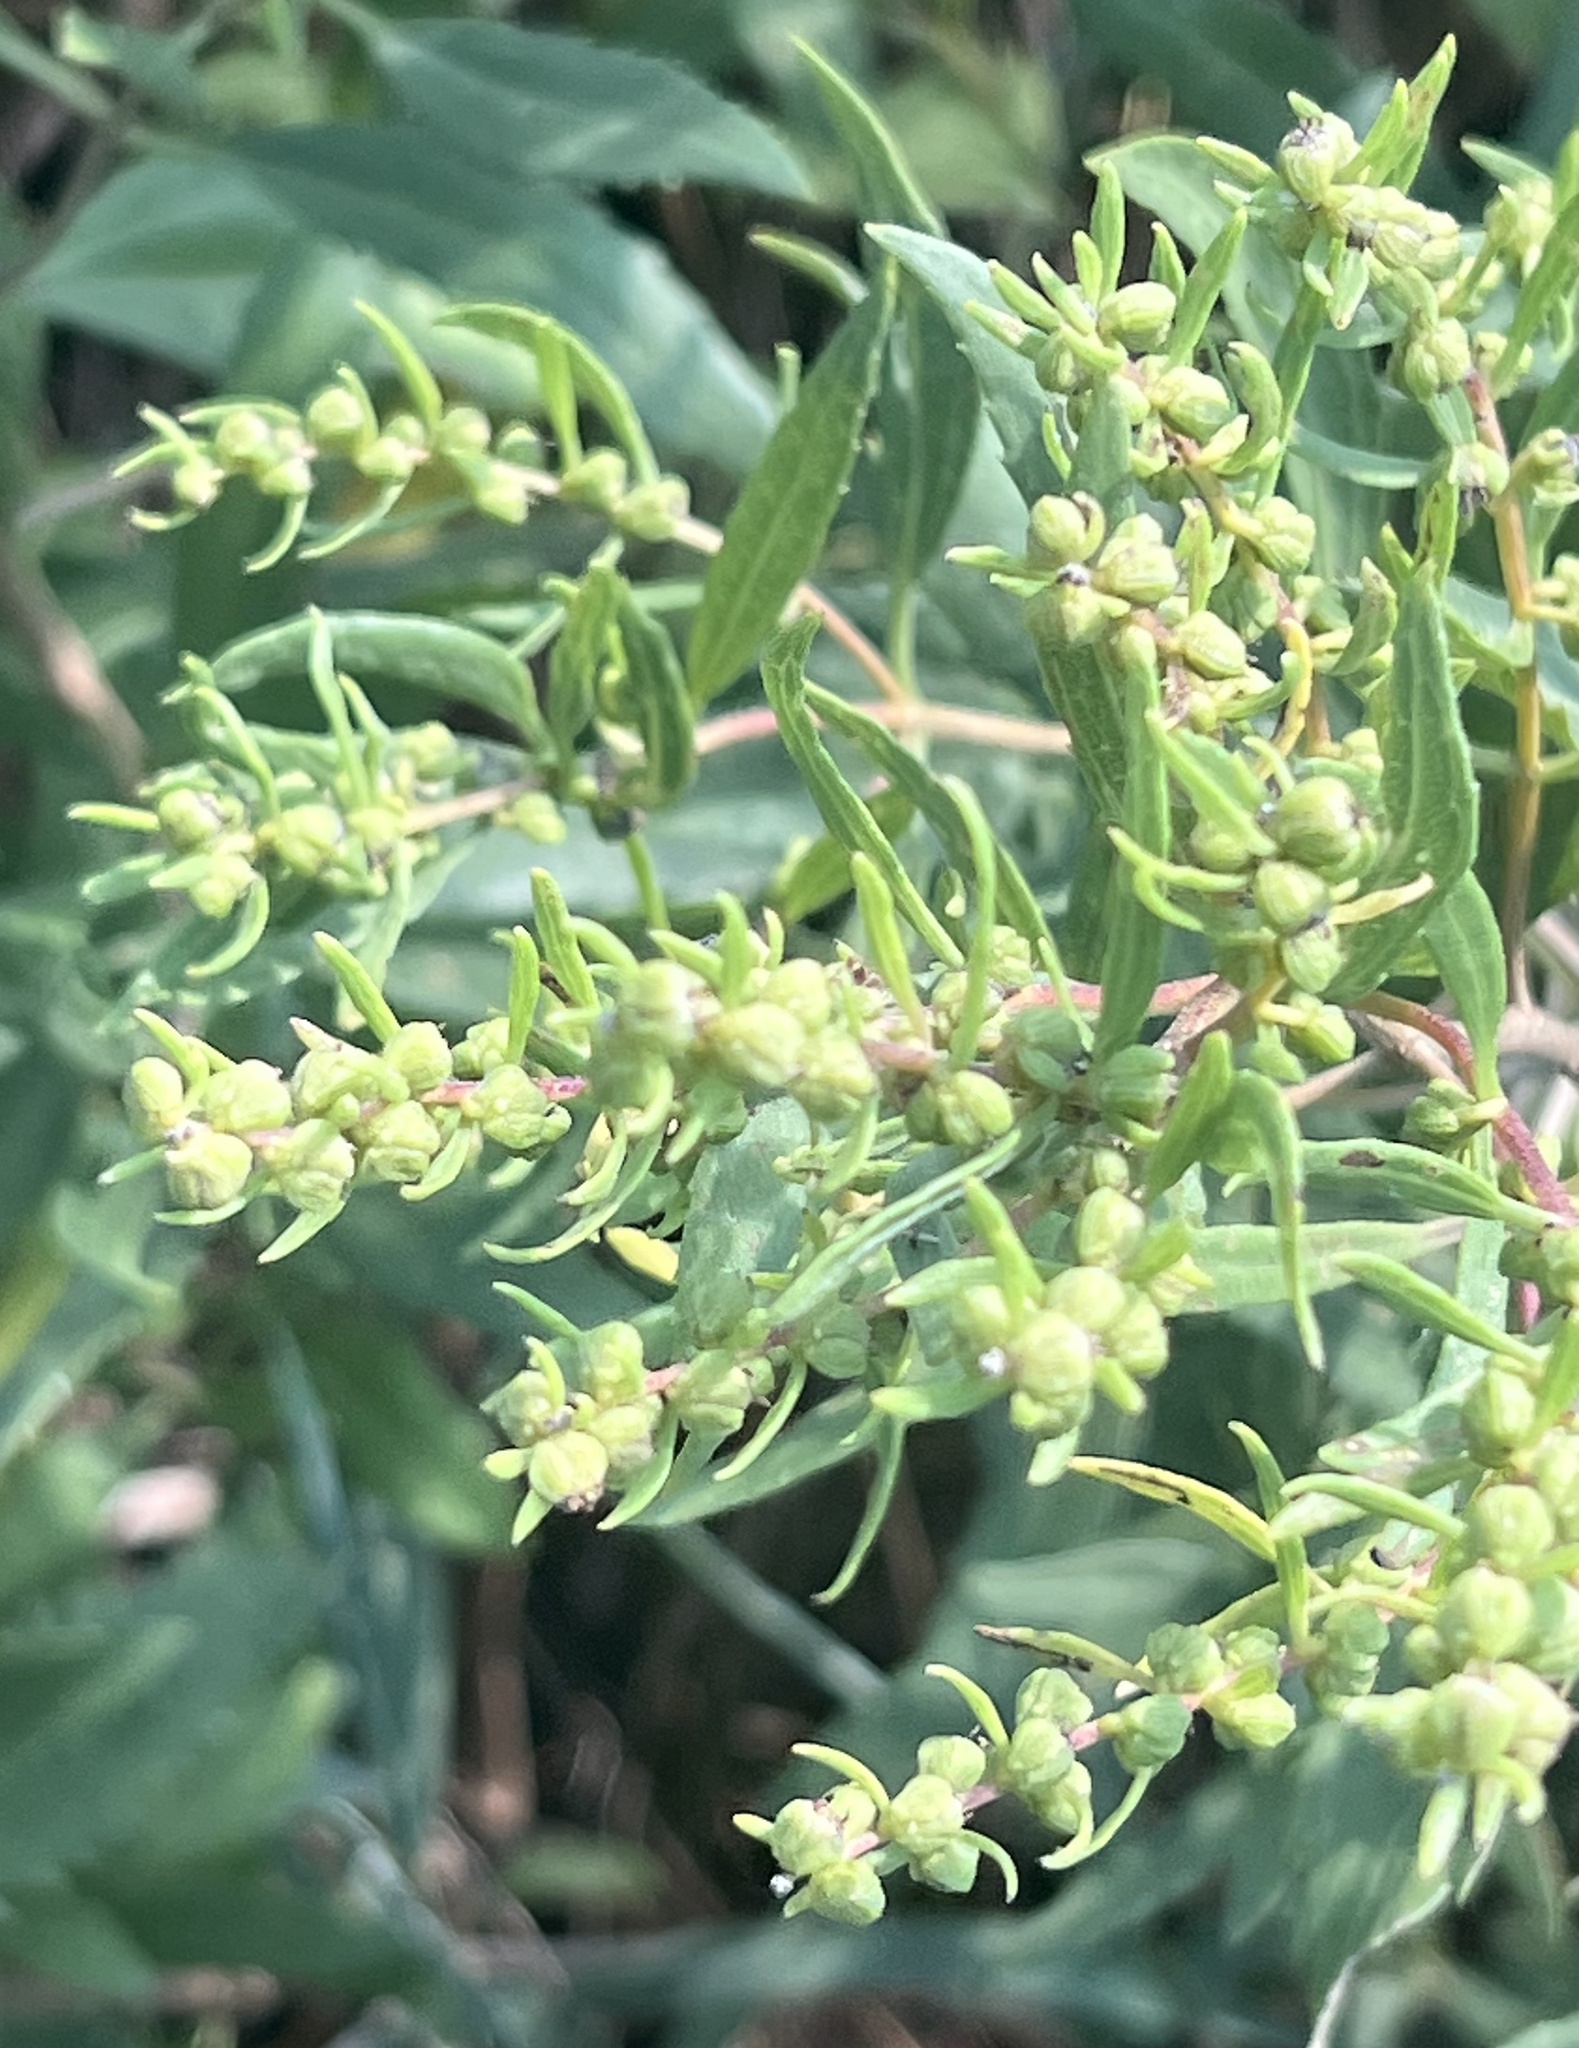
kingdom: Plantae
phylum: Tracheophyta
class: Magnoliopsida
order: Asterales
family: Asteraceae
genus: Iva
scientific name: Iva frutescens
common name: Big-leaved marsh-elder
